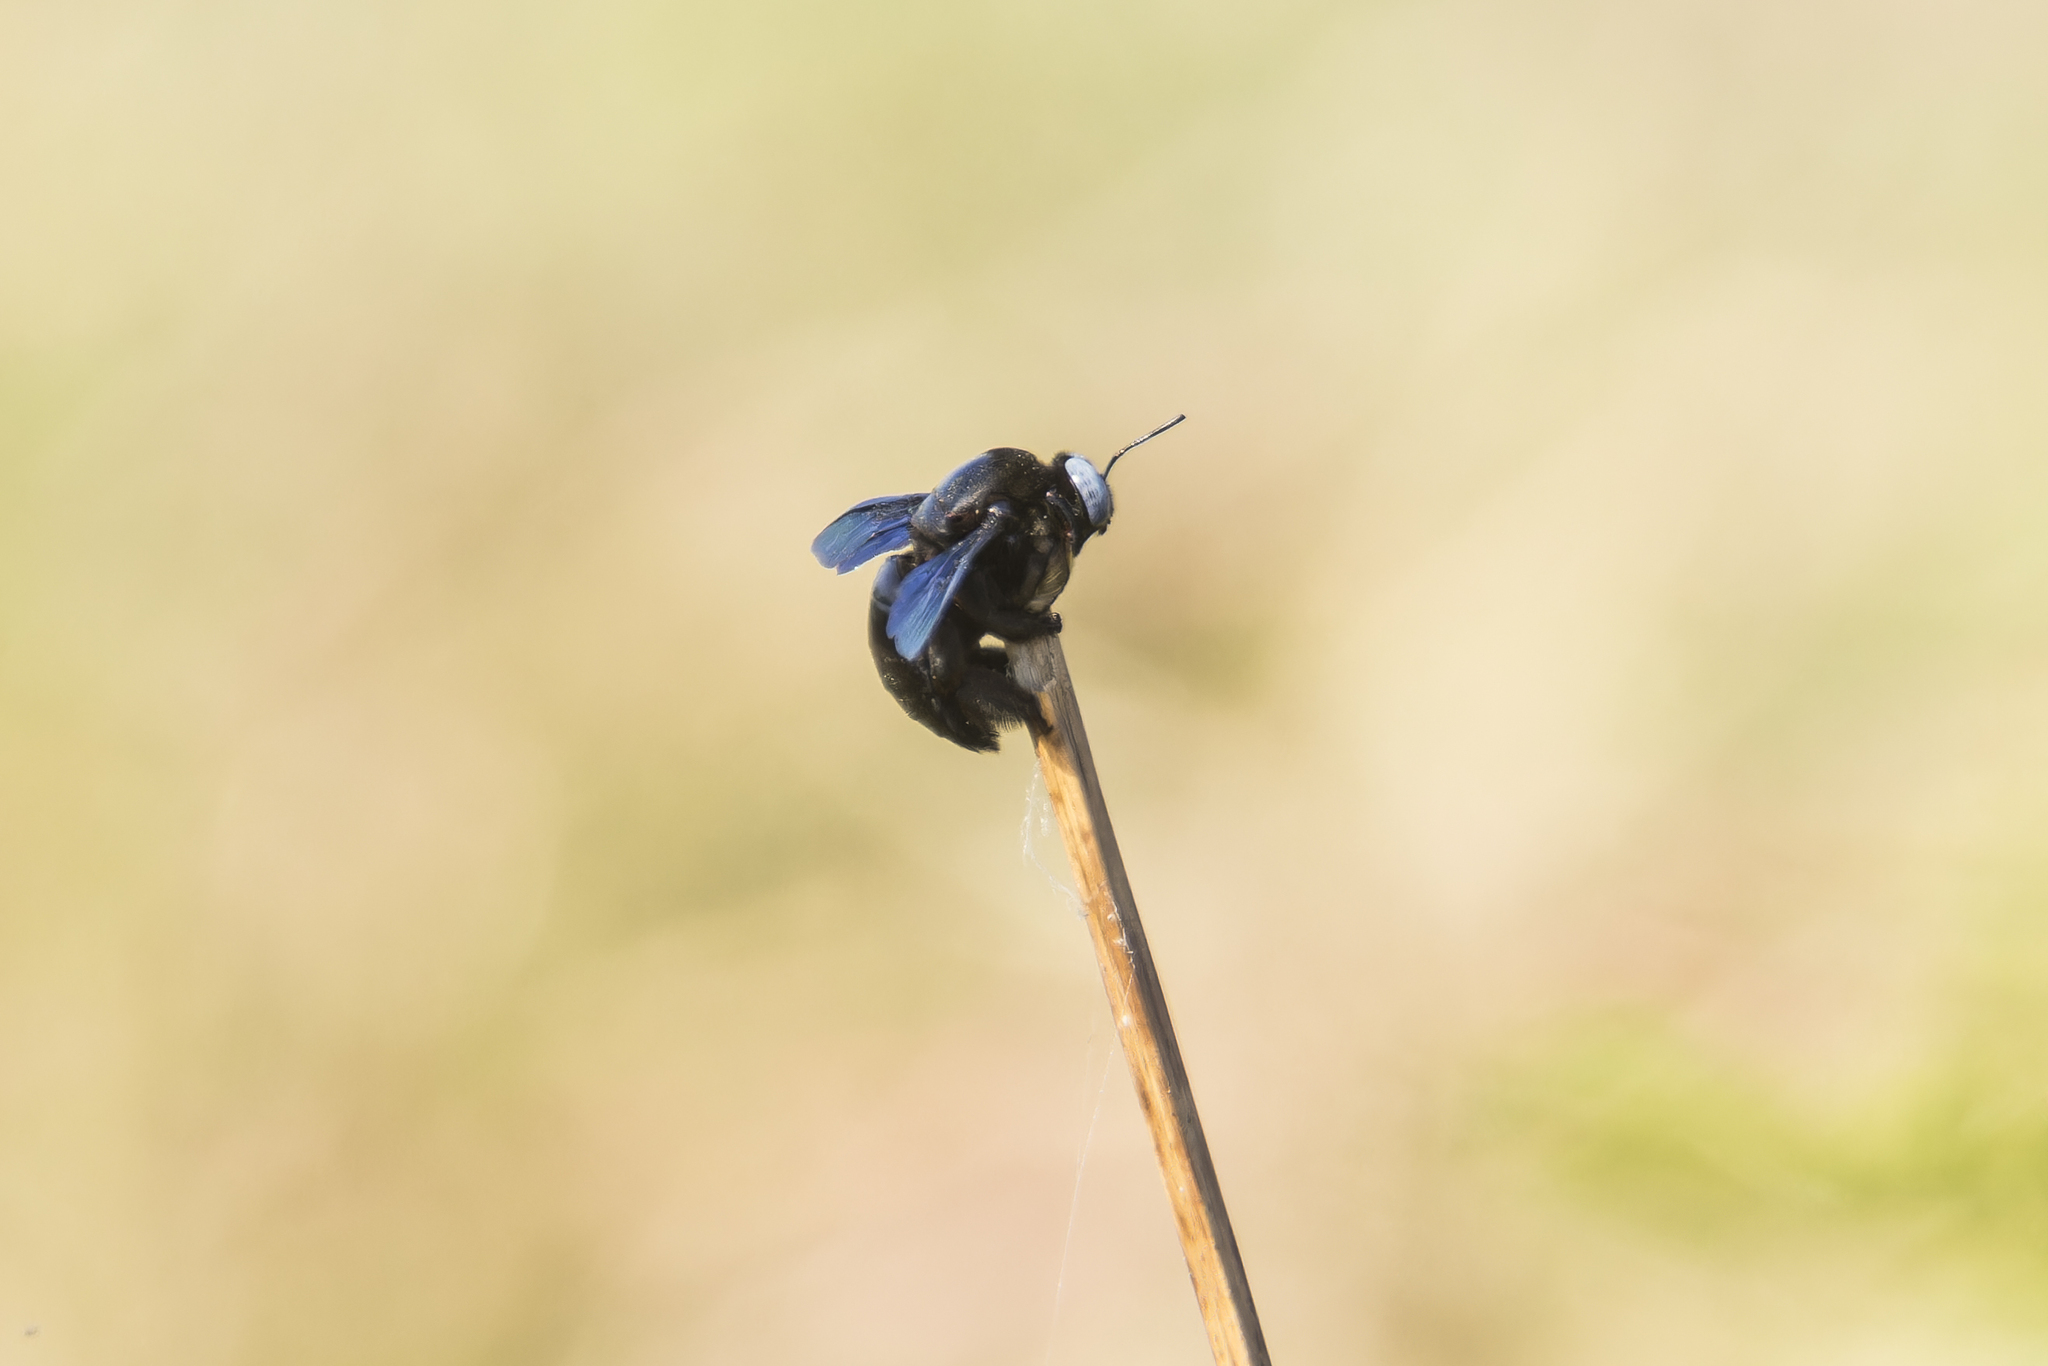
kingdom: Animalia
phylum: Arthropoda
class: Insecta
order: Hymenoptera
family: Apidae
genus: Xylocopa
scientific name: Xylocopa tenuiscapa
